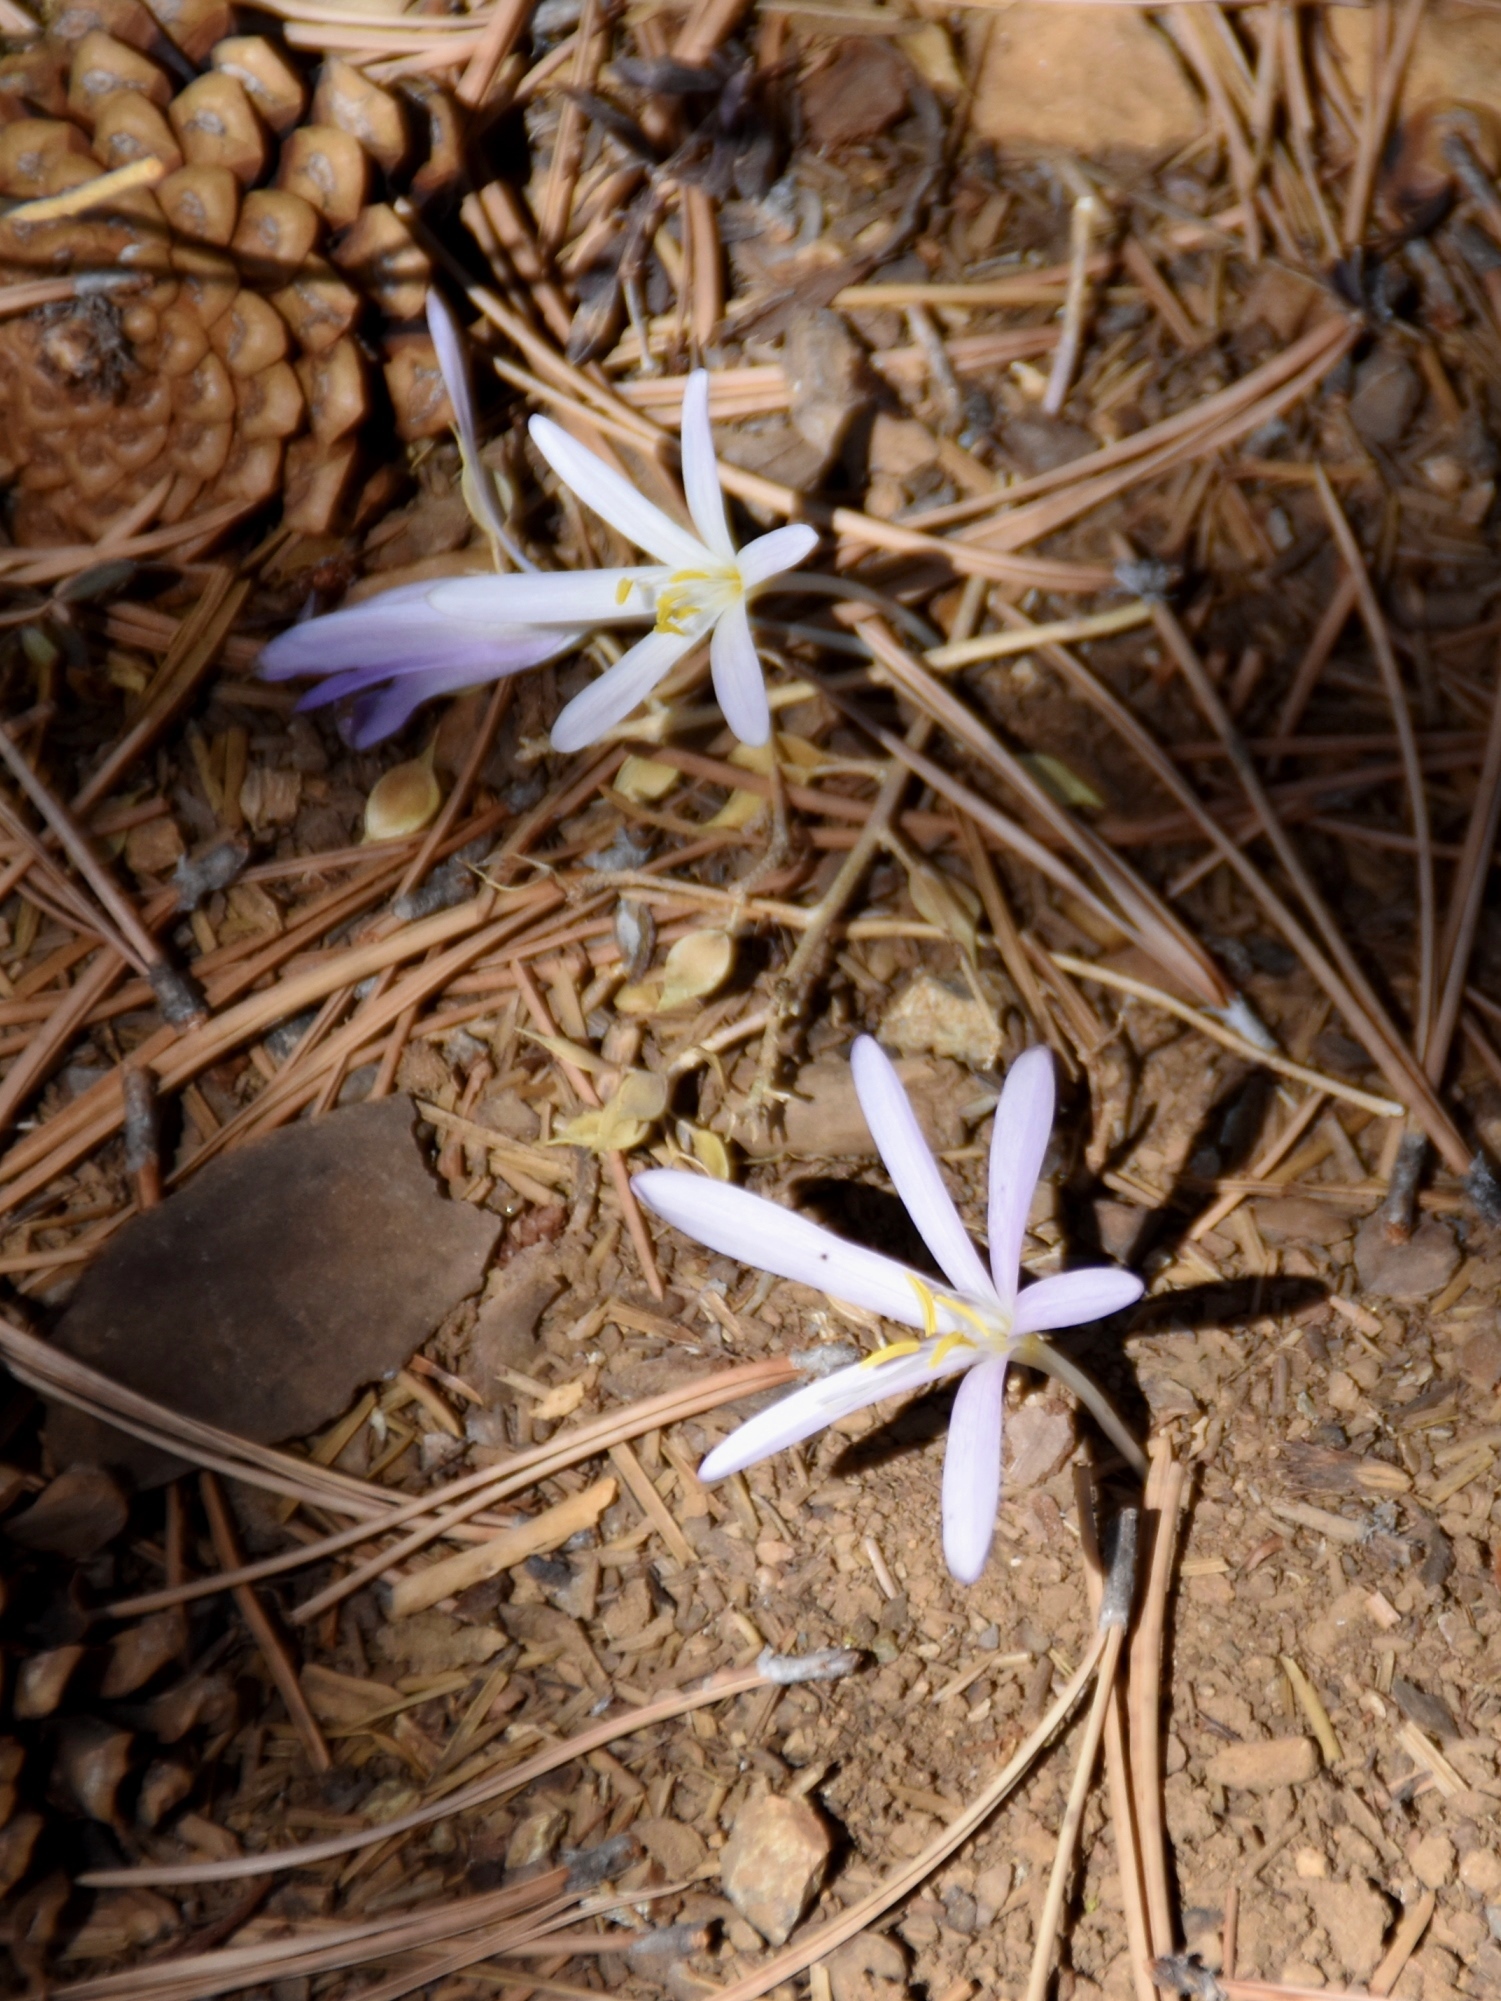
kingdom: Plantae
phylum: Tracheophyta
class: Liliopsida
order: Liliales
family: Colchicaceae
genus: Colchicum
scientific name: Colchicum troodi
